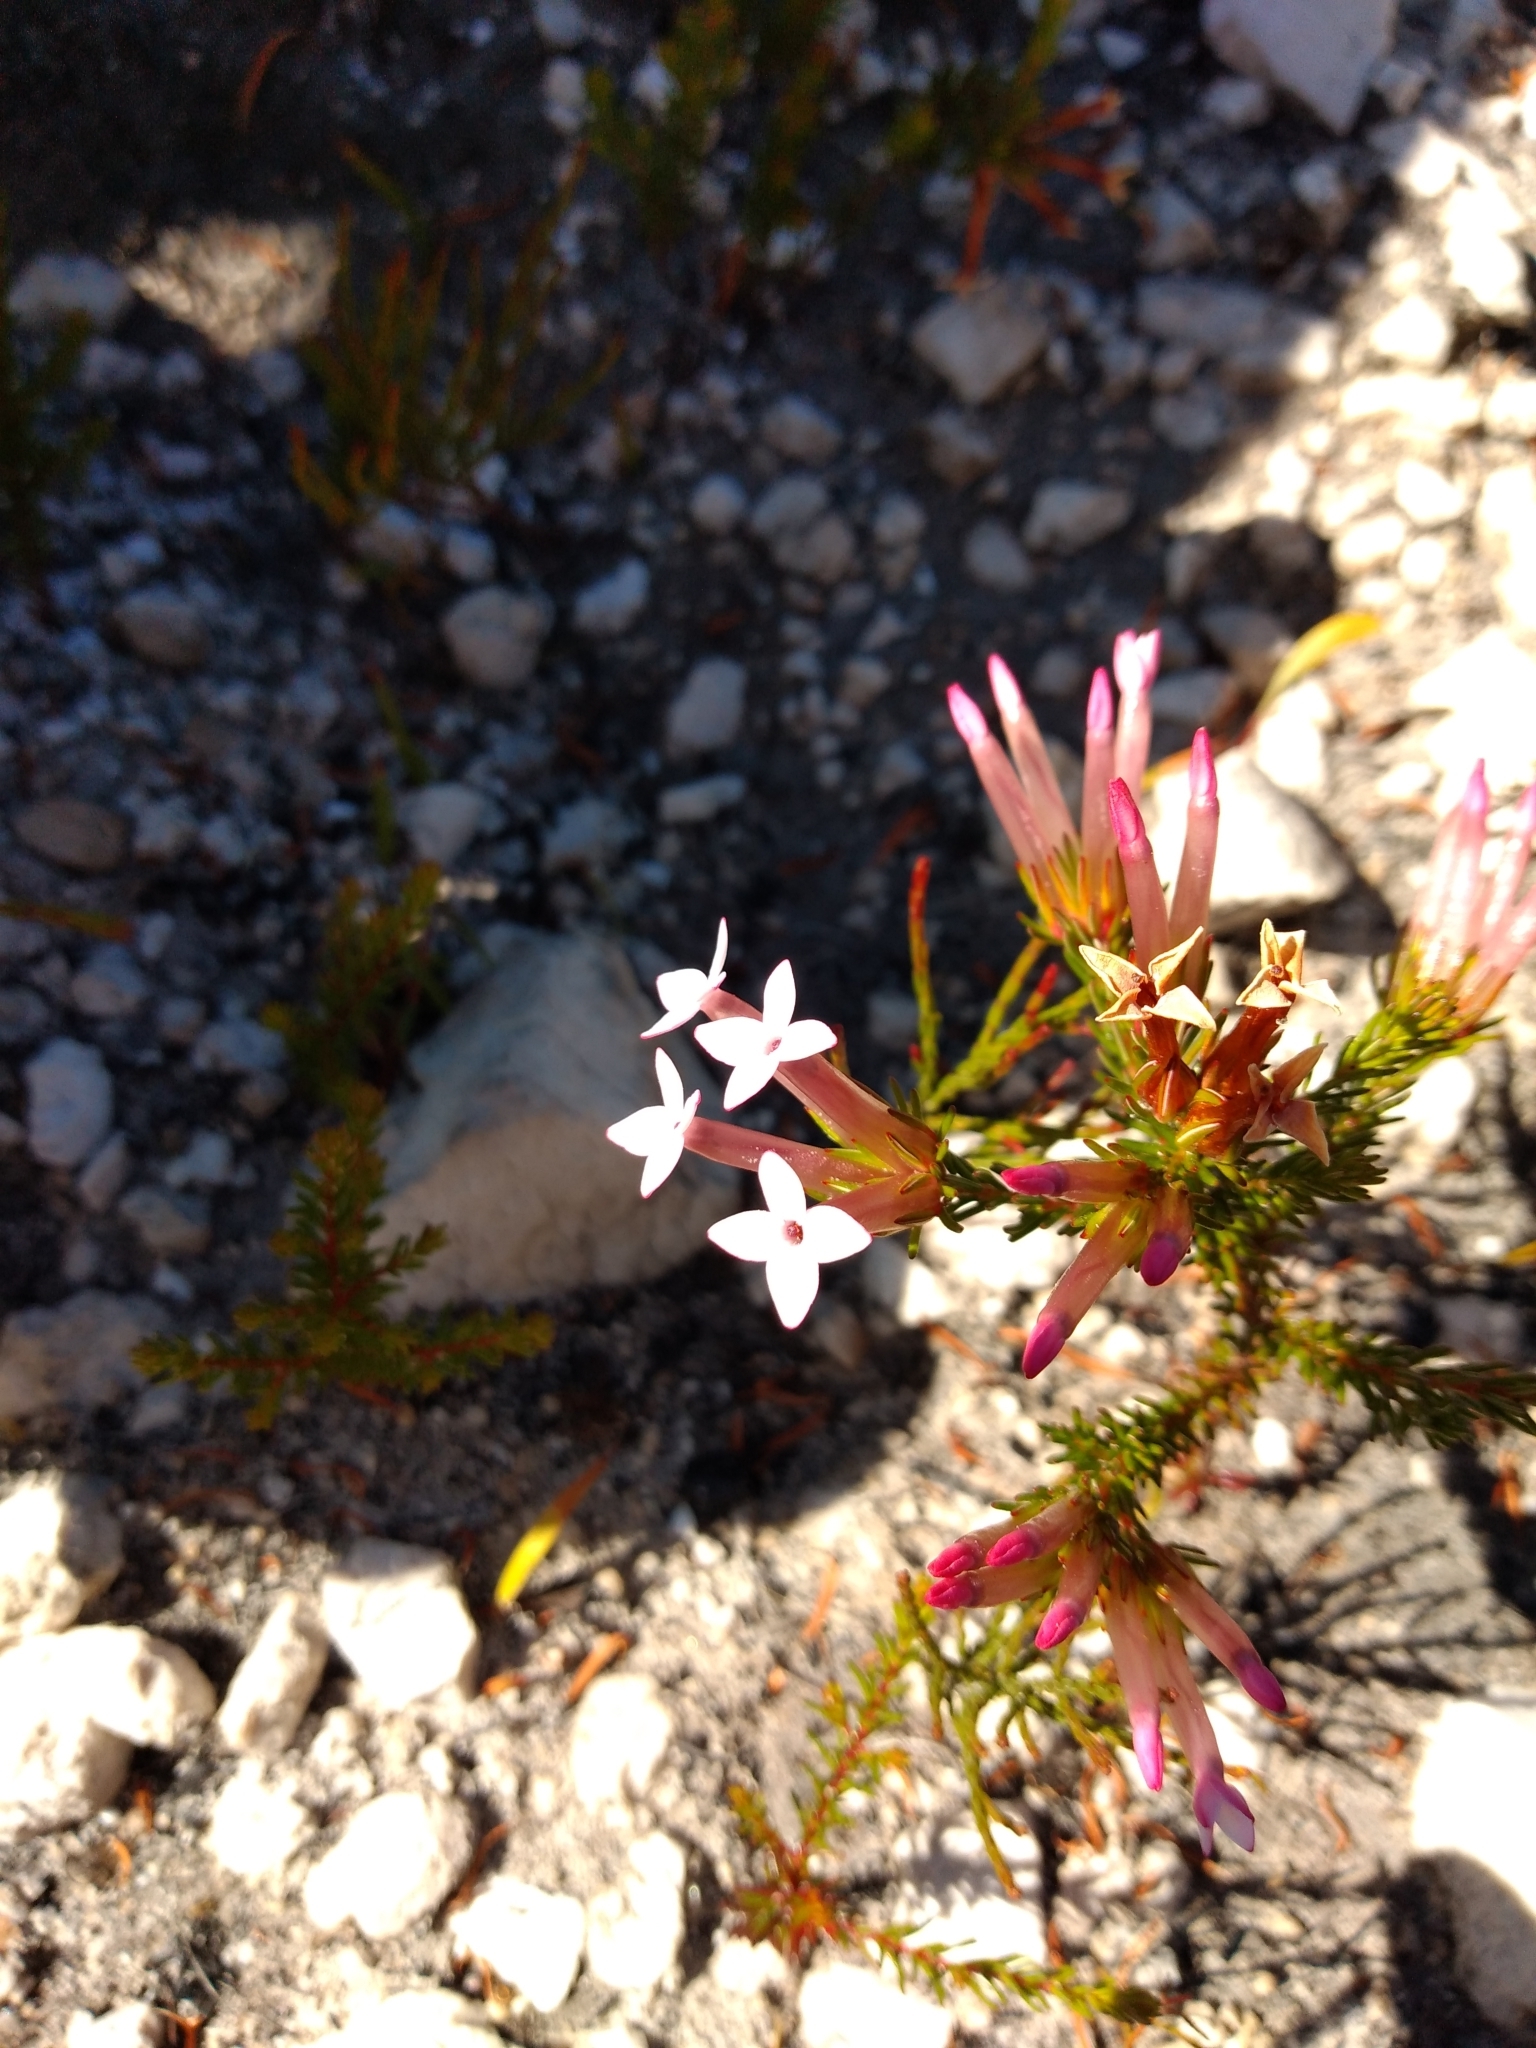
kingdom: Plantae
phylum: Tracheophyta
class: Magnoliopsida
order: Ericales
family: Ericaceae
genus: Erica
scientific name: Erica infundibuliformis
